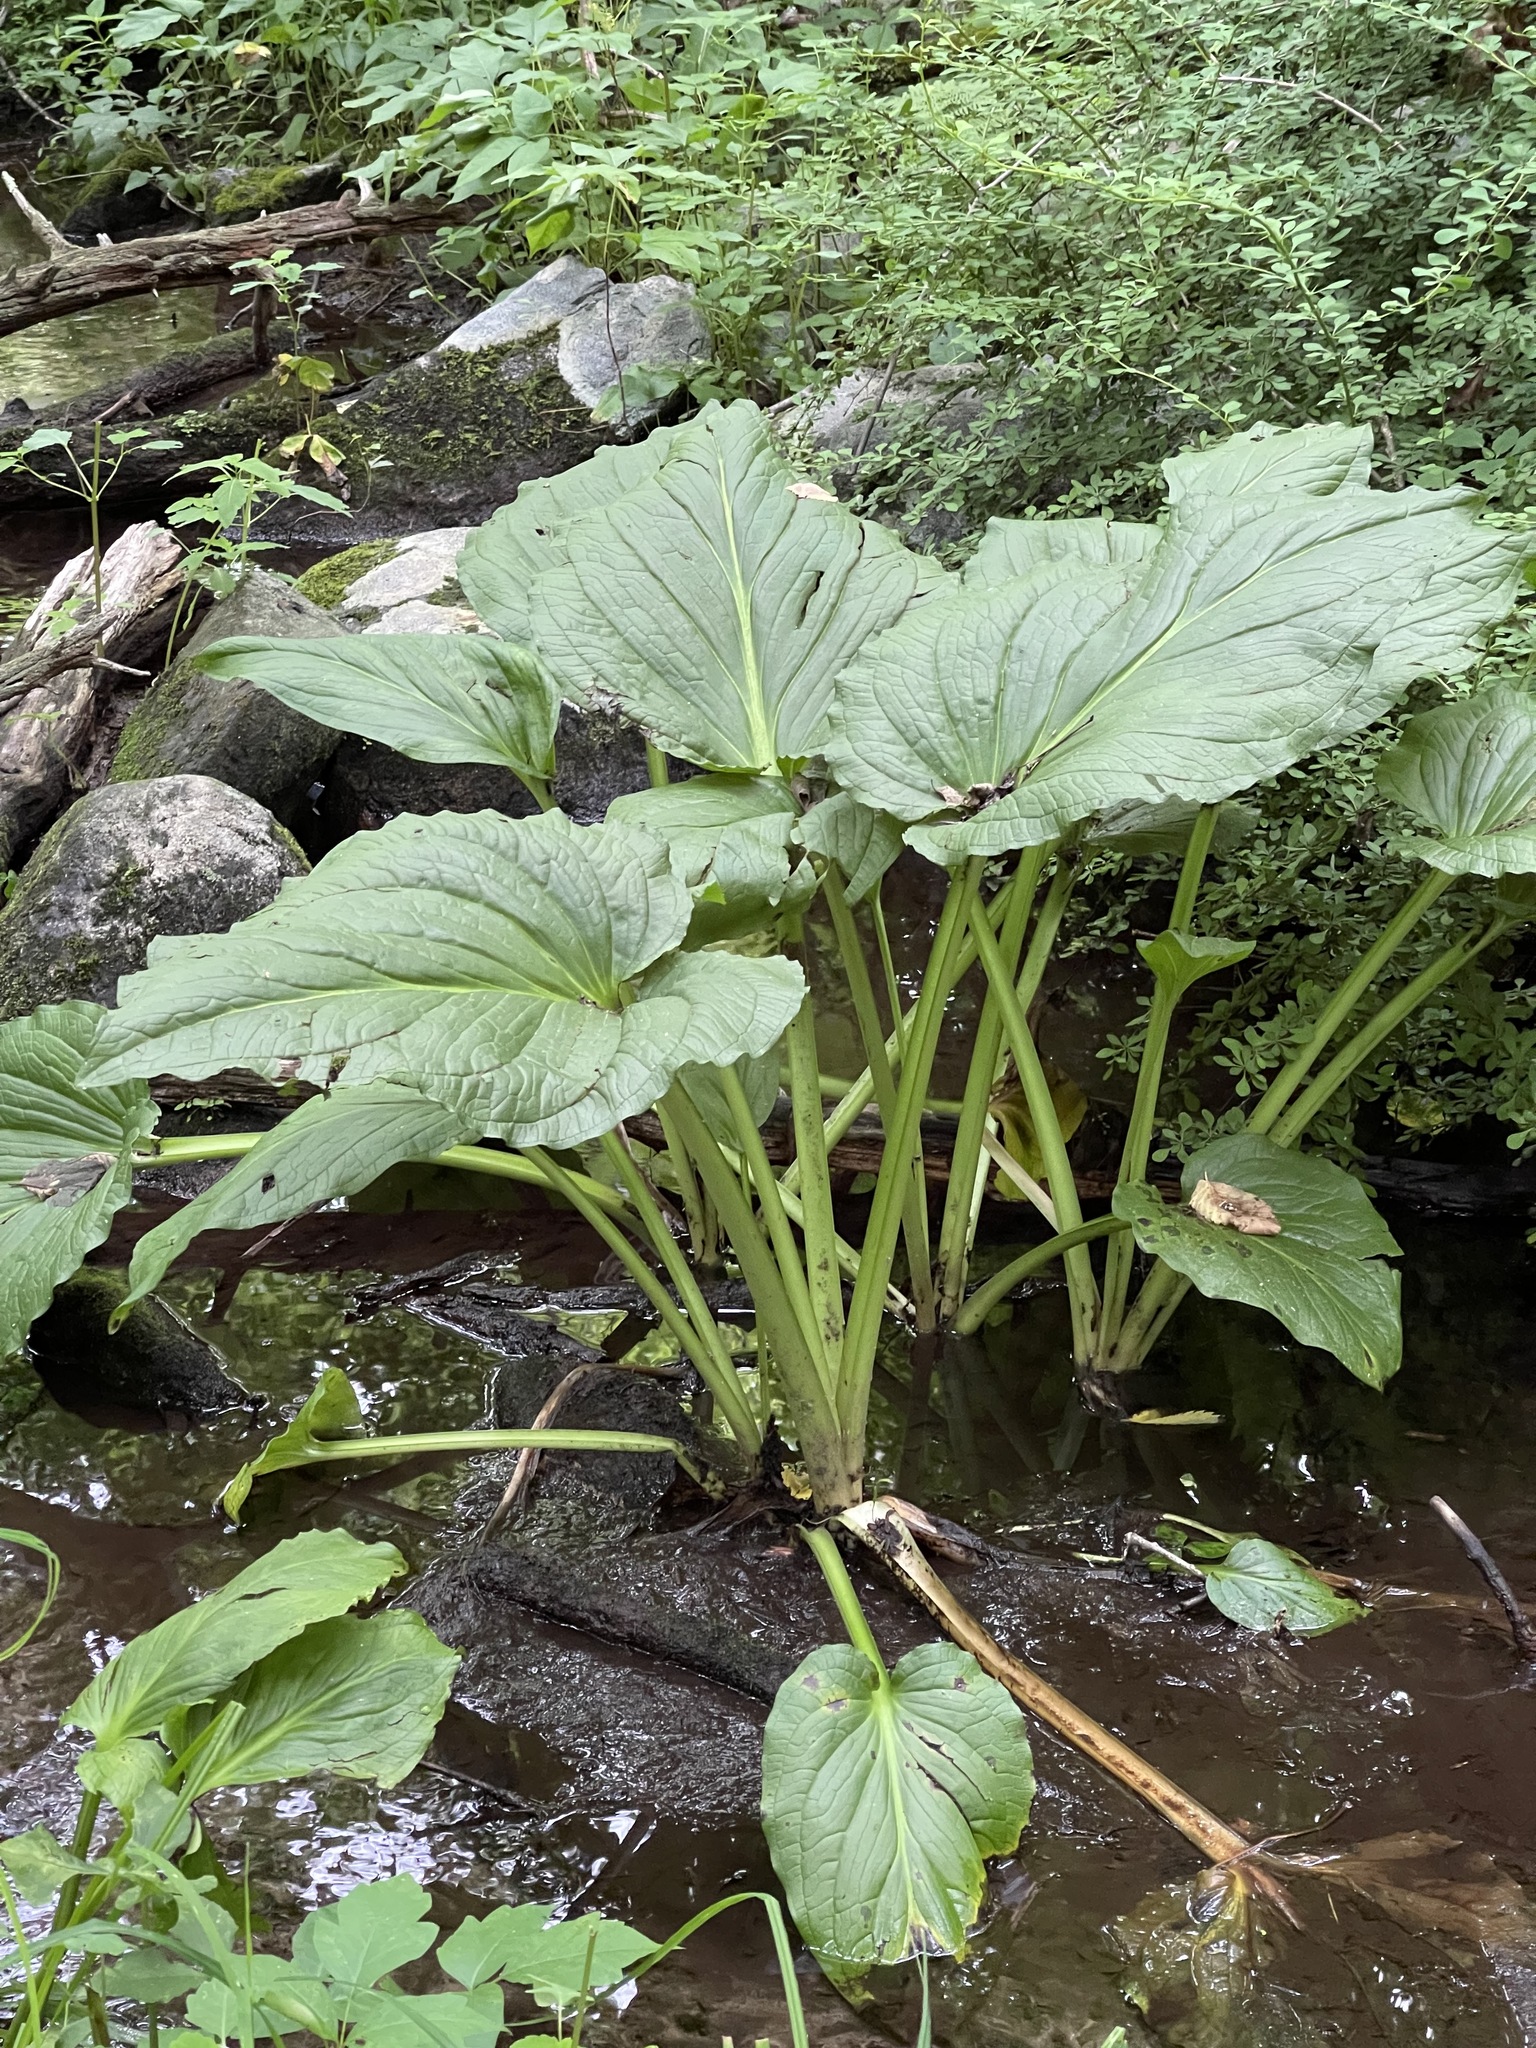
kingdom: Plantae
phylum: Tracheophyta
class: Liliopsida
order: Alismatales
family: Araceae
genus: Symplocarpus
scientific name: Symplocarpus foetidus
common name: Eastern skunk cabbage
